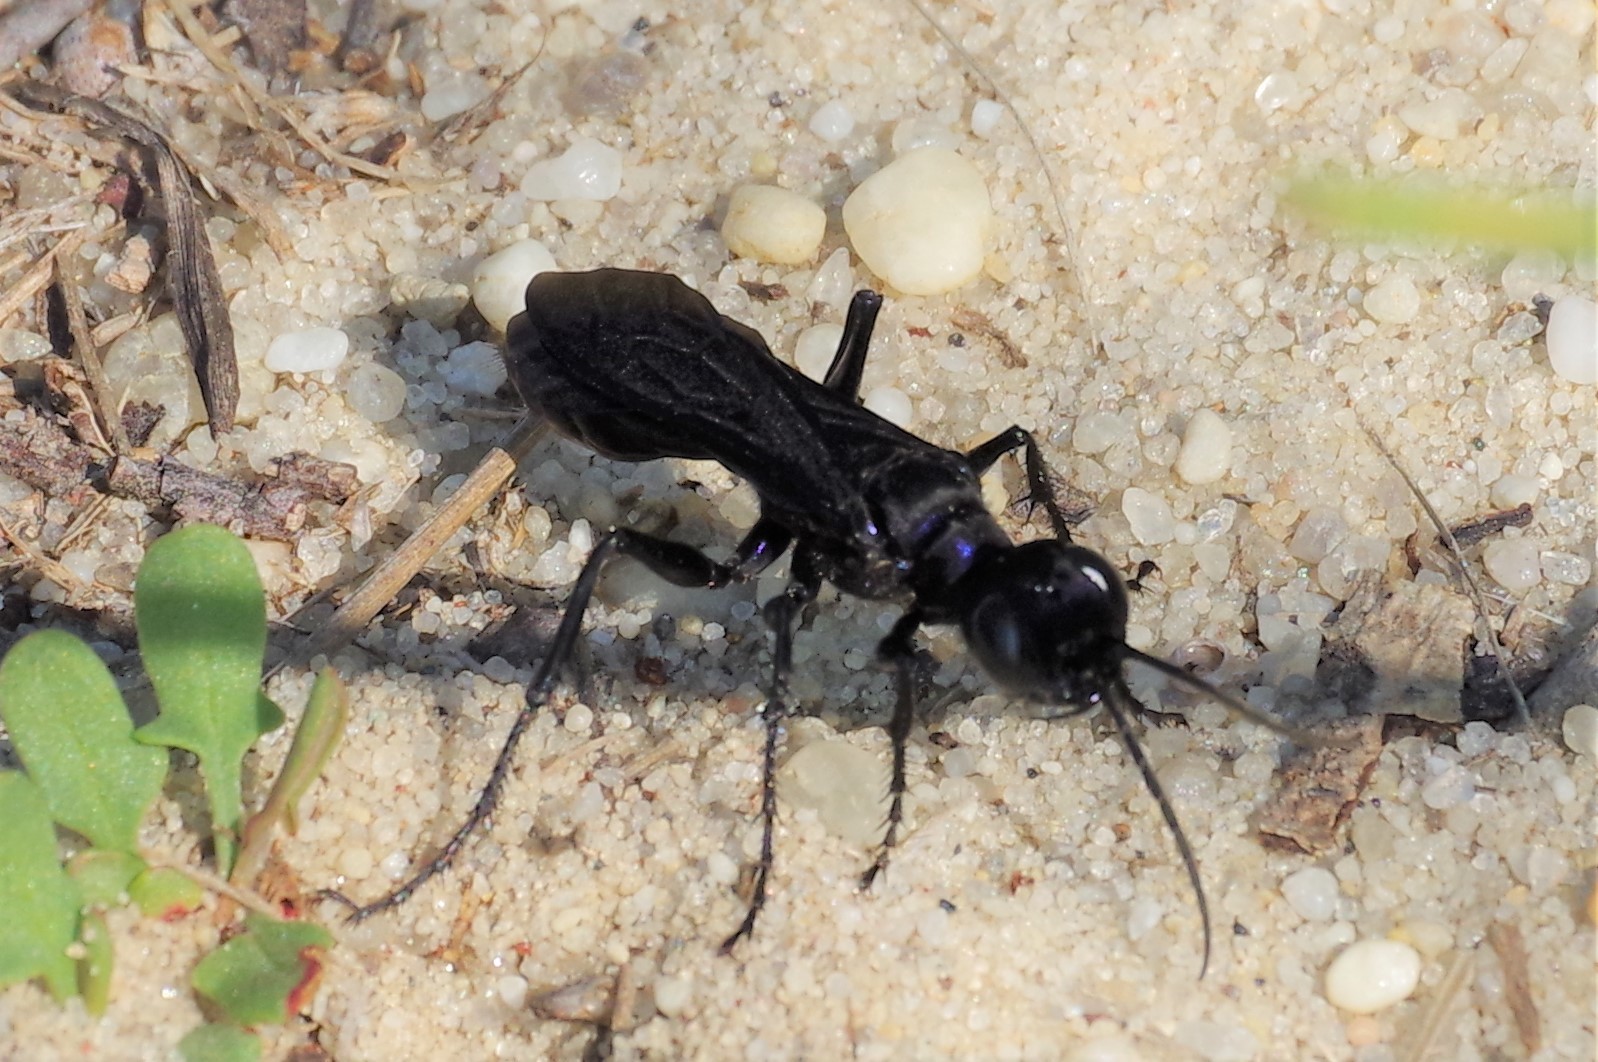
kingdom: Animalia
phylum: Arthropoda
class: Insecta
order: Hymenoptera
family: Sphecidae
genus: Chlorion
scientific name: Chlorion aerarium
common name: Steel-blue cricket hunter
